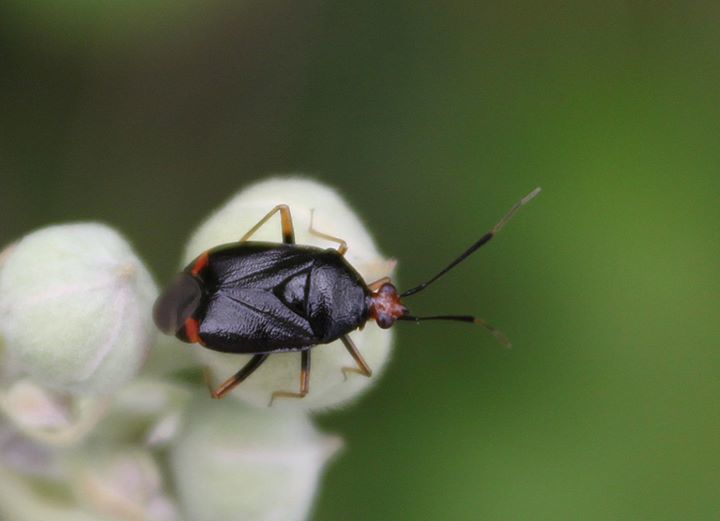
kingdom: Animalia
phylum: Arthropoda
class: Insecta
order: Hemiptera
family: Miridae
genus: Deraeocoris
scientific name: Deraeocoris ruber
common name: Plant bug
